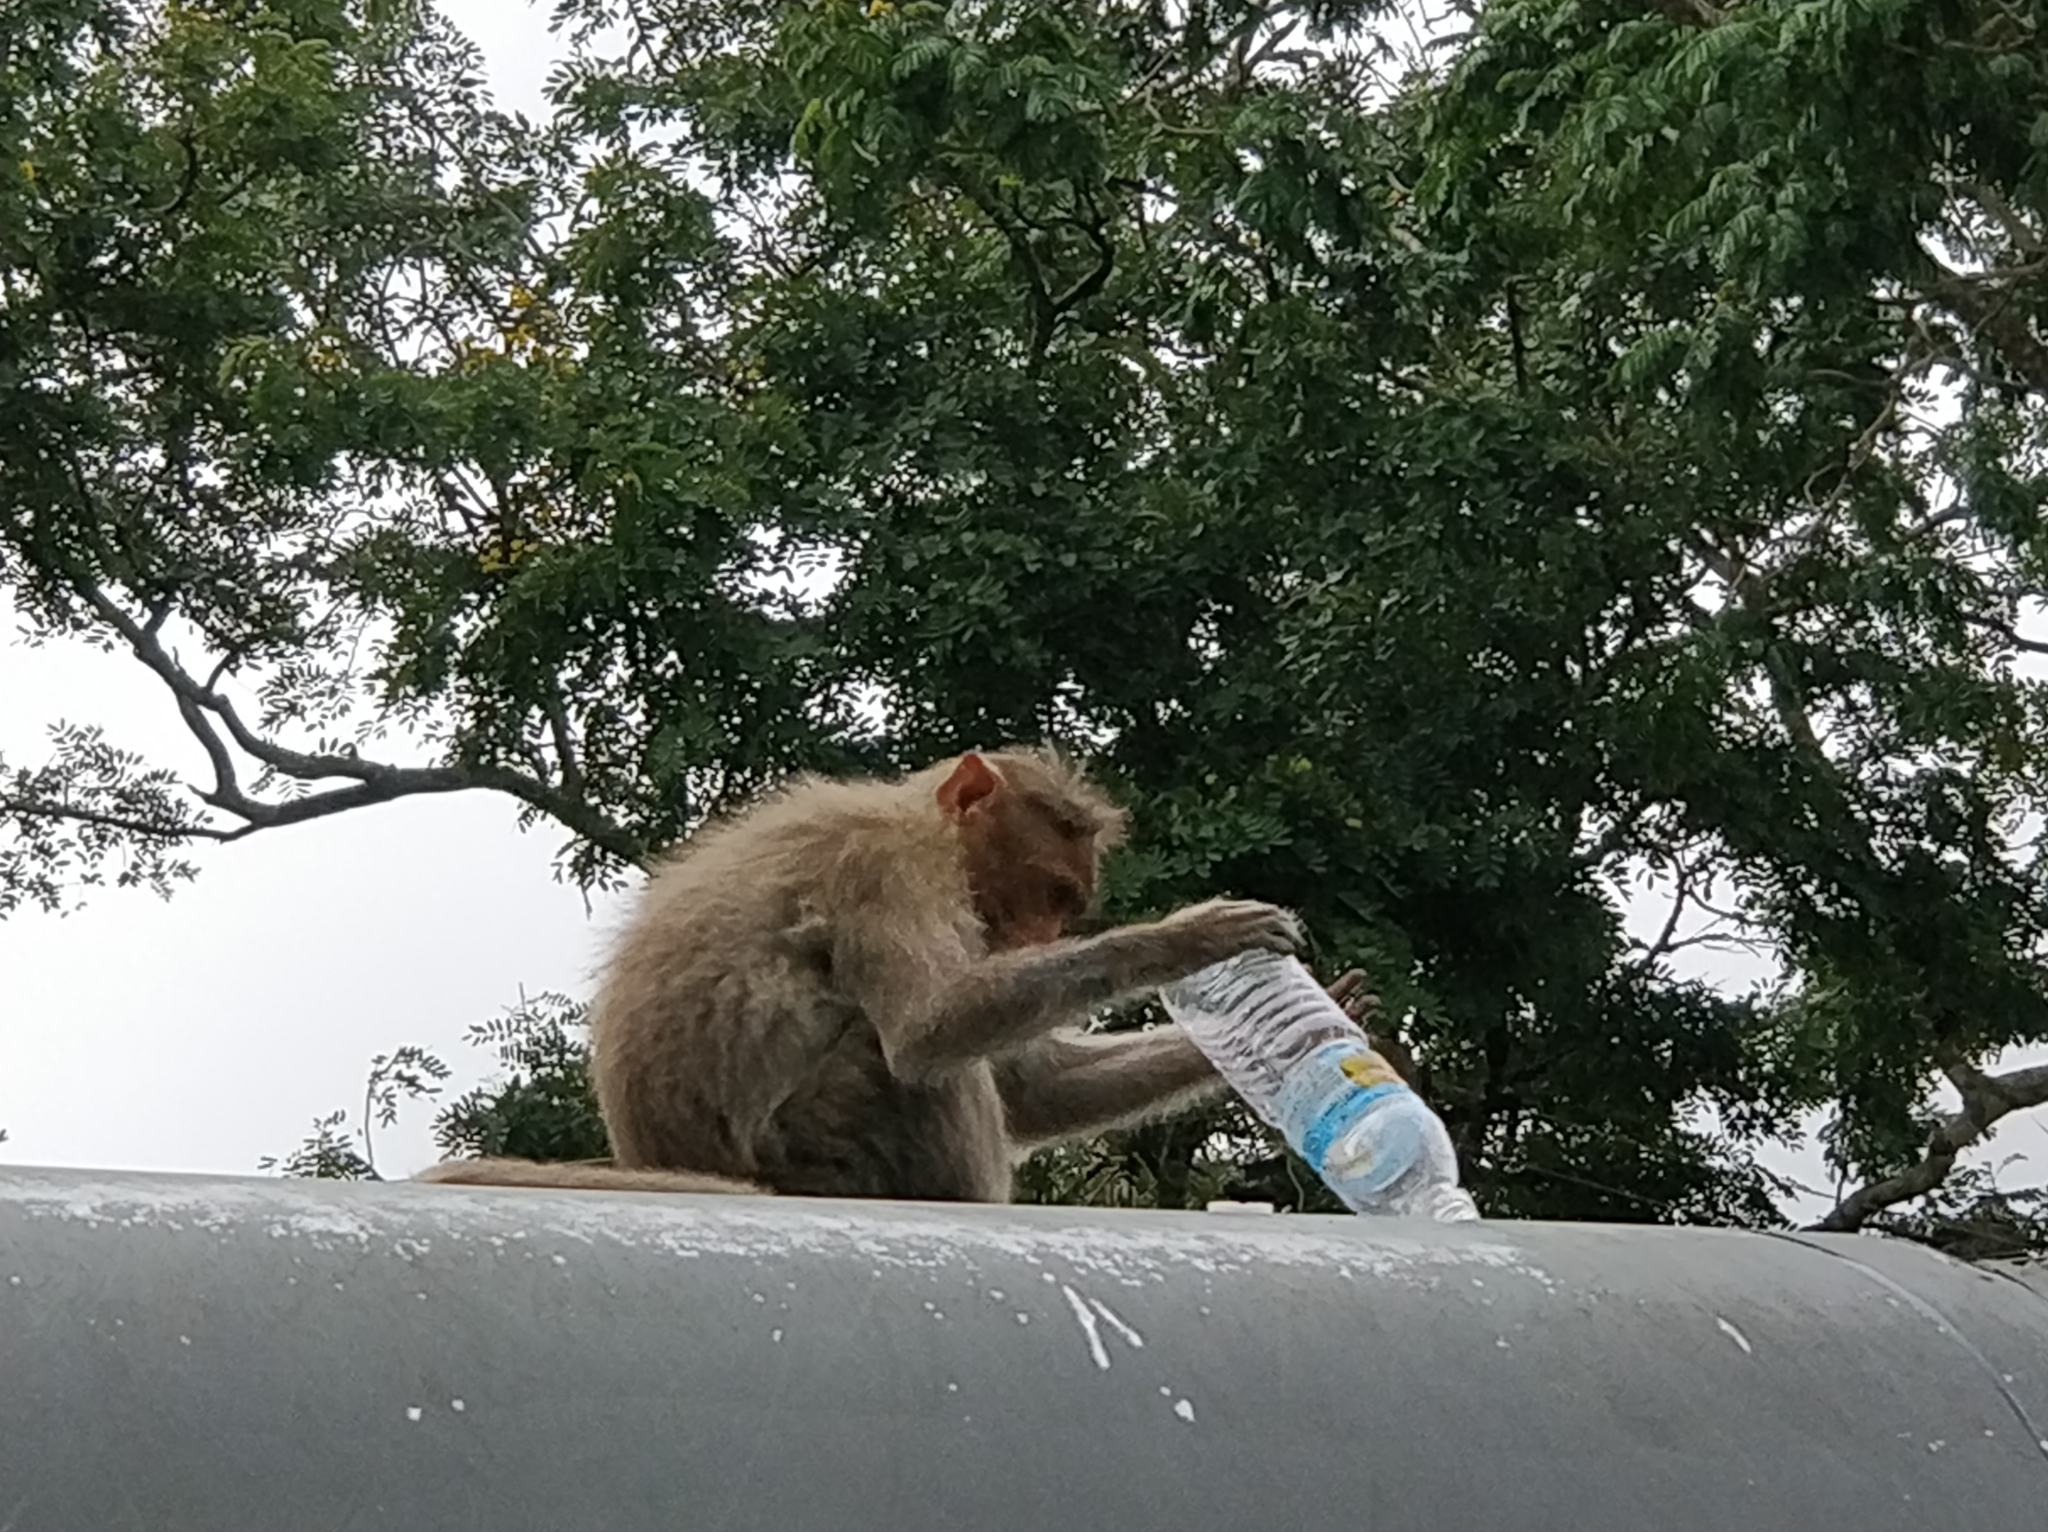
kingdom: Animalia
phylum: Chordata
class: Mammalia
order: Primates
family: Cercopithecidae
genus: Macaca
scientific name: Macaca radiata
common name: Bonnet macaque
